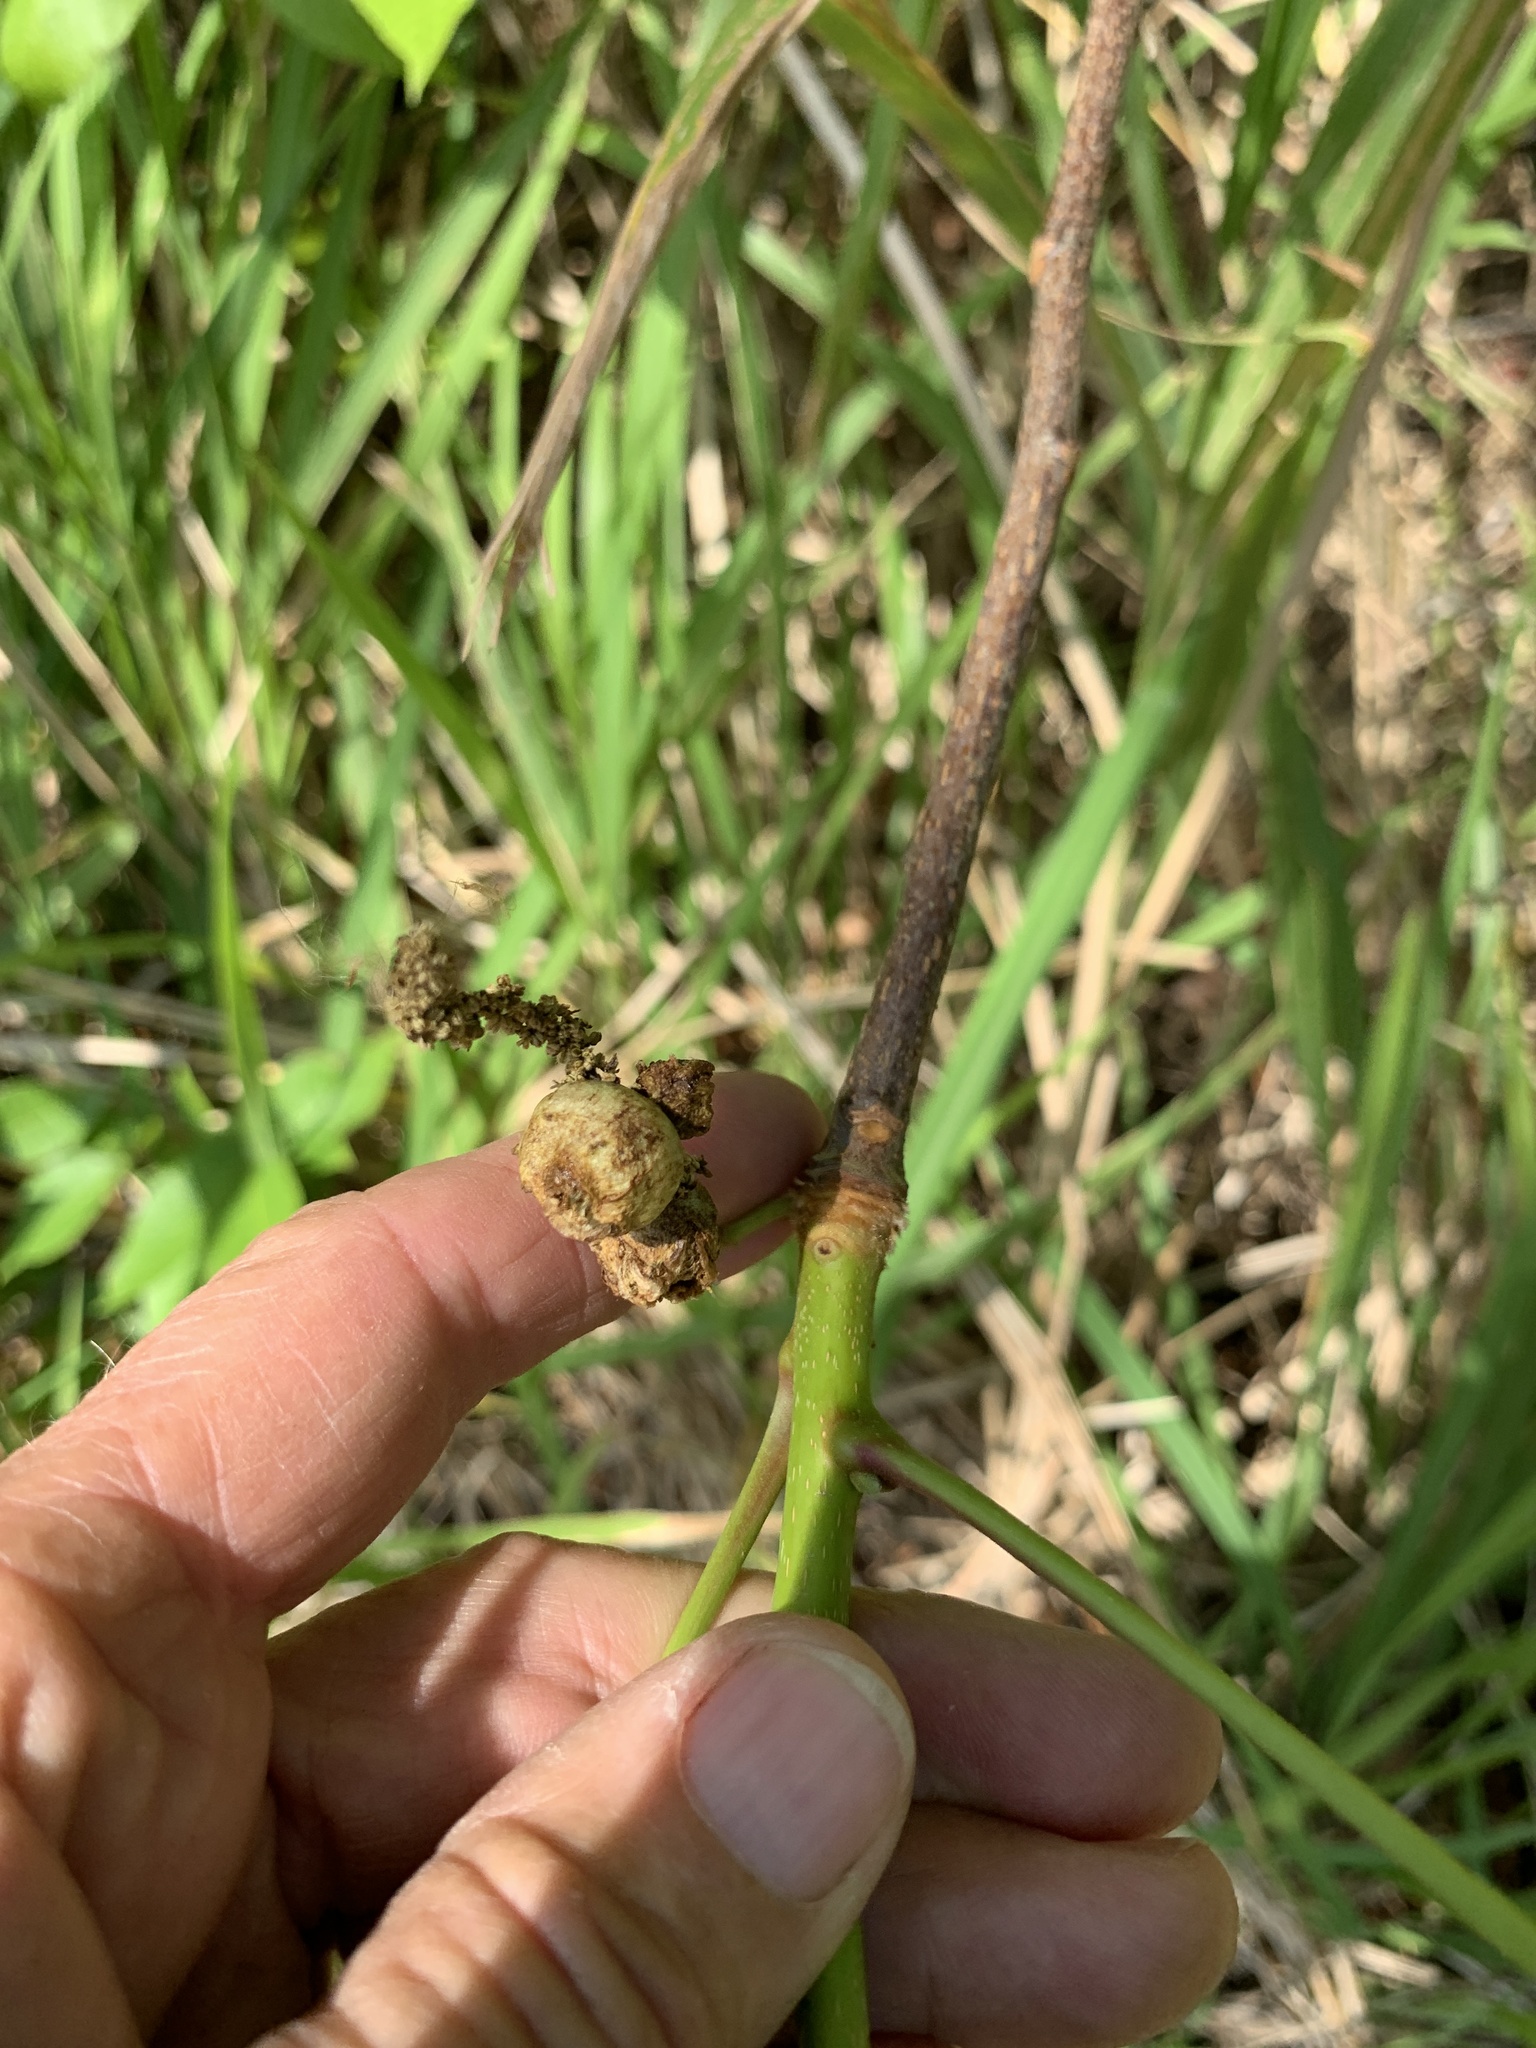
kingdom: Plantae
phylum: Tracheophyta
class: Magnoliopsida
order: Fagales
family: Juglandaceae
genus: Carya
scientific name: Carya glabra
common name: Pignut hickory
